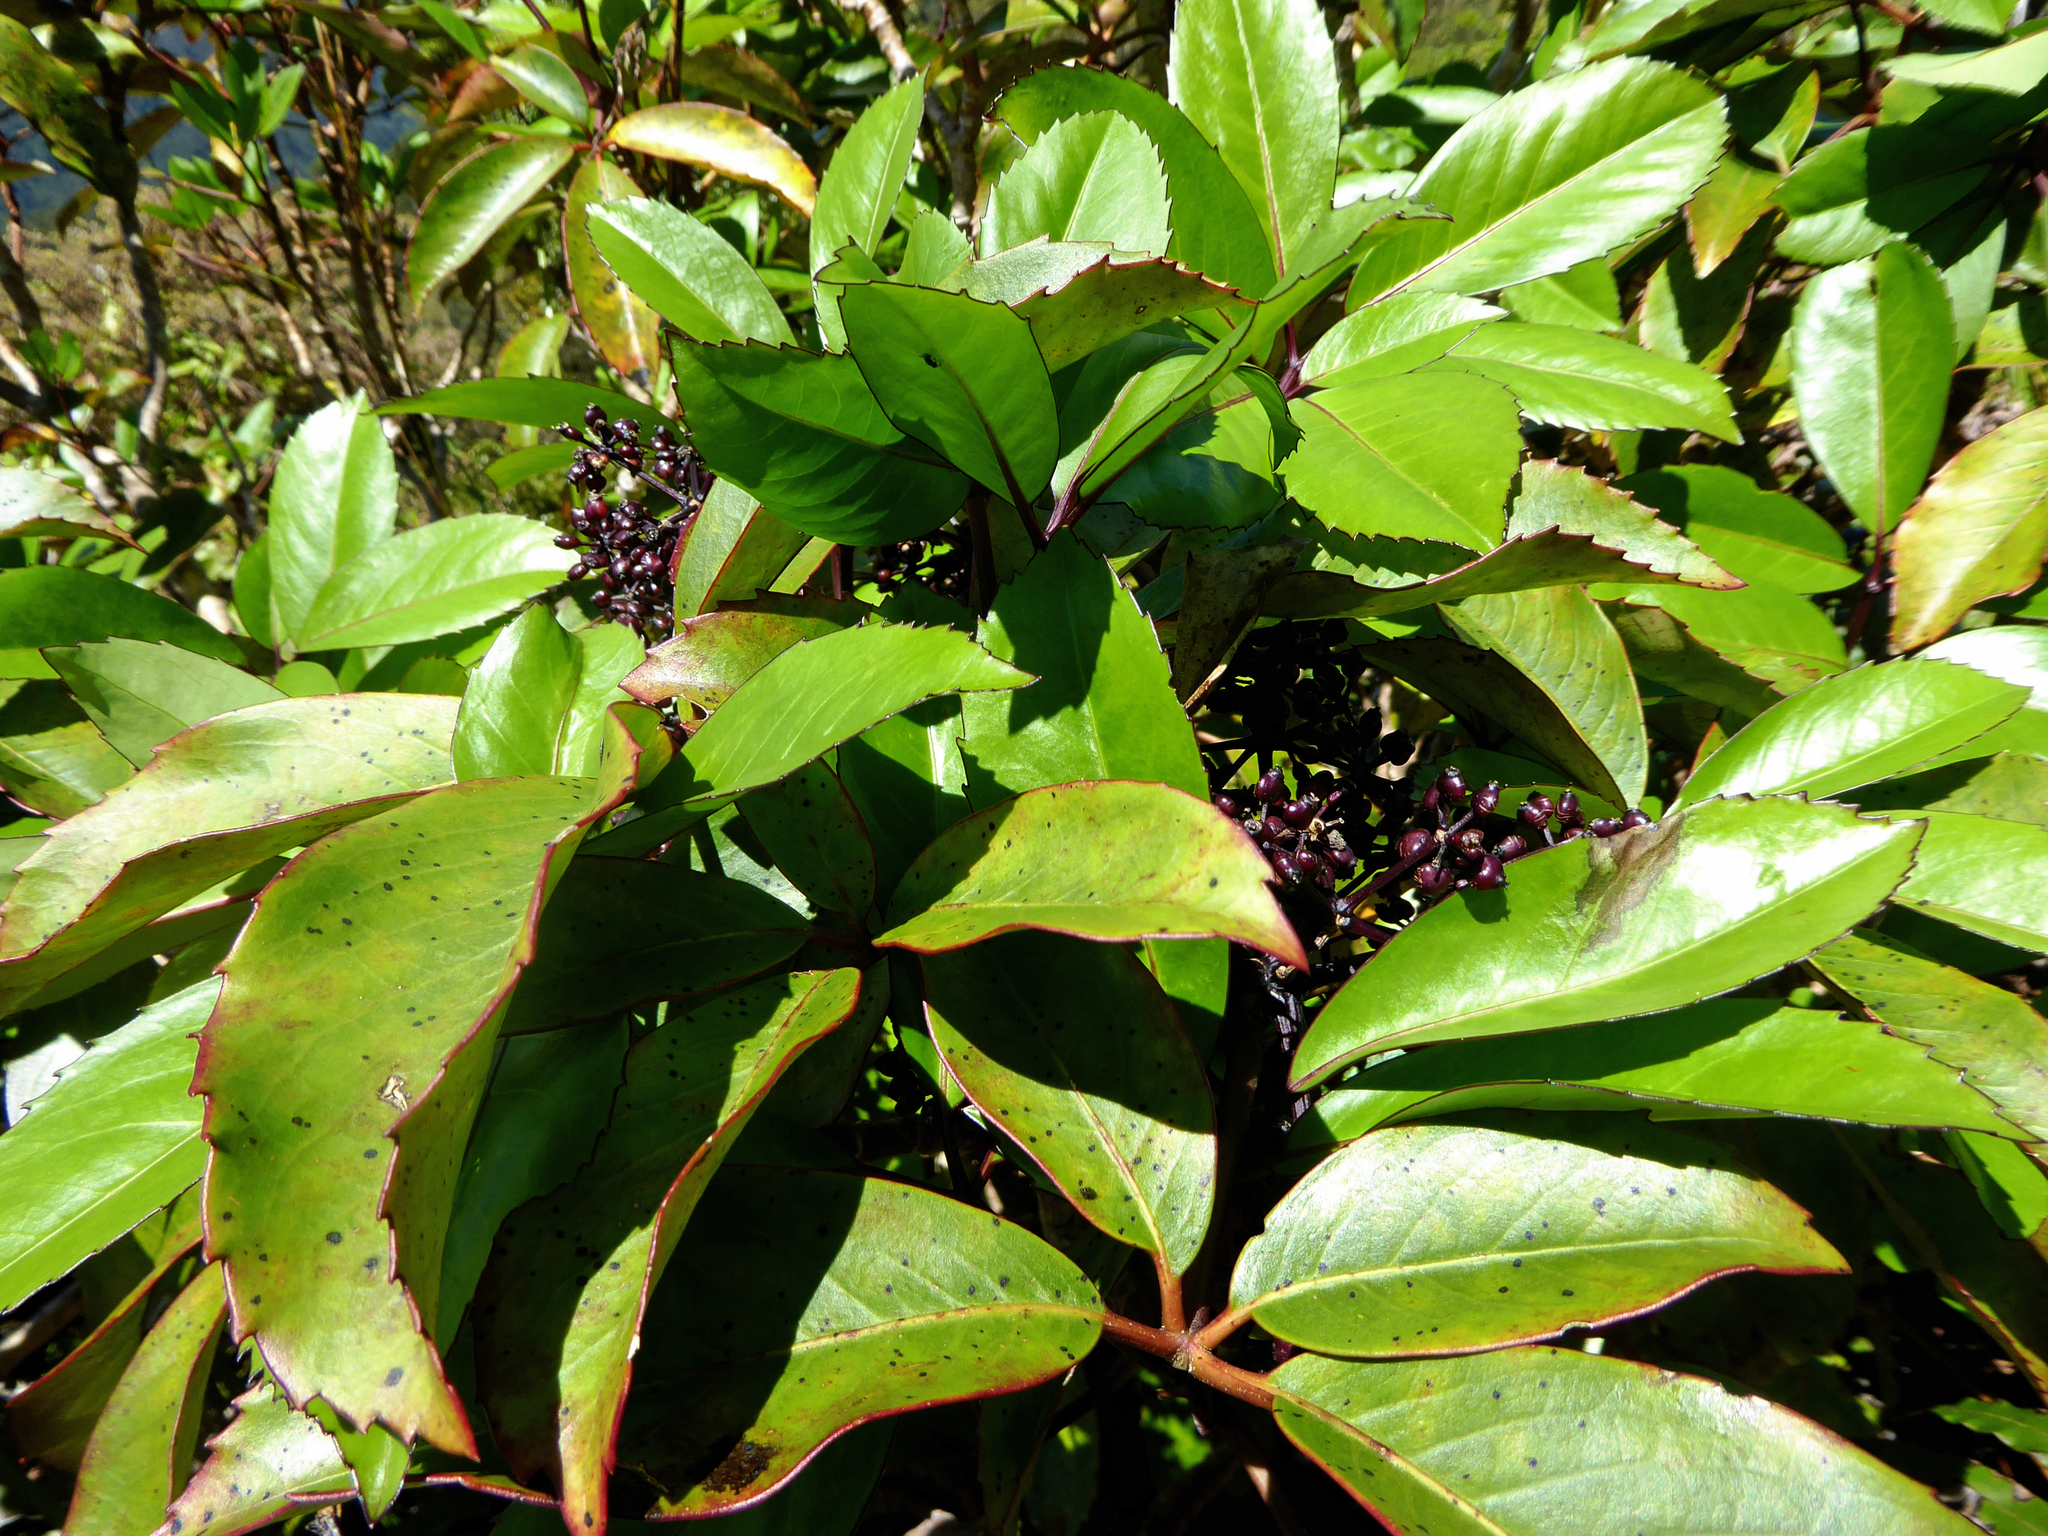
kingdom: Plantae
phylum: Tracheophyta
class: Magnoliopsida
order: Apiales
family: Araliaceae
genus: Neopanax
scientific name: Neopanax laetus
